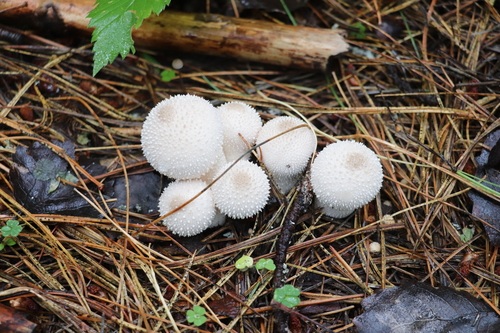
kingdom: Fungi
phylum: Basidiomycota
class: Agaricomycetes
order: Agaricales
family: Lycoperdaceae
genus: Lycoperdon
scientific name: Lycoperdon perlatum
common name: Common puffball
